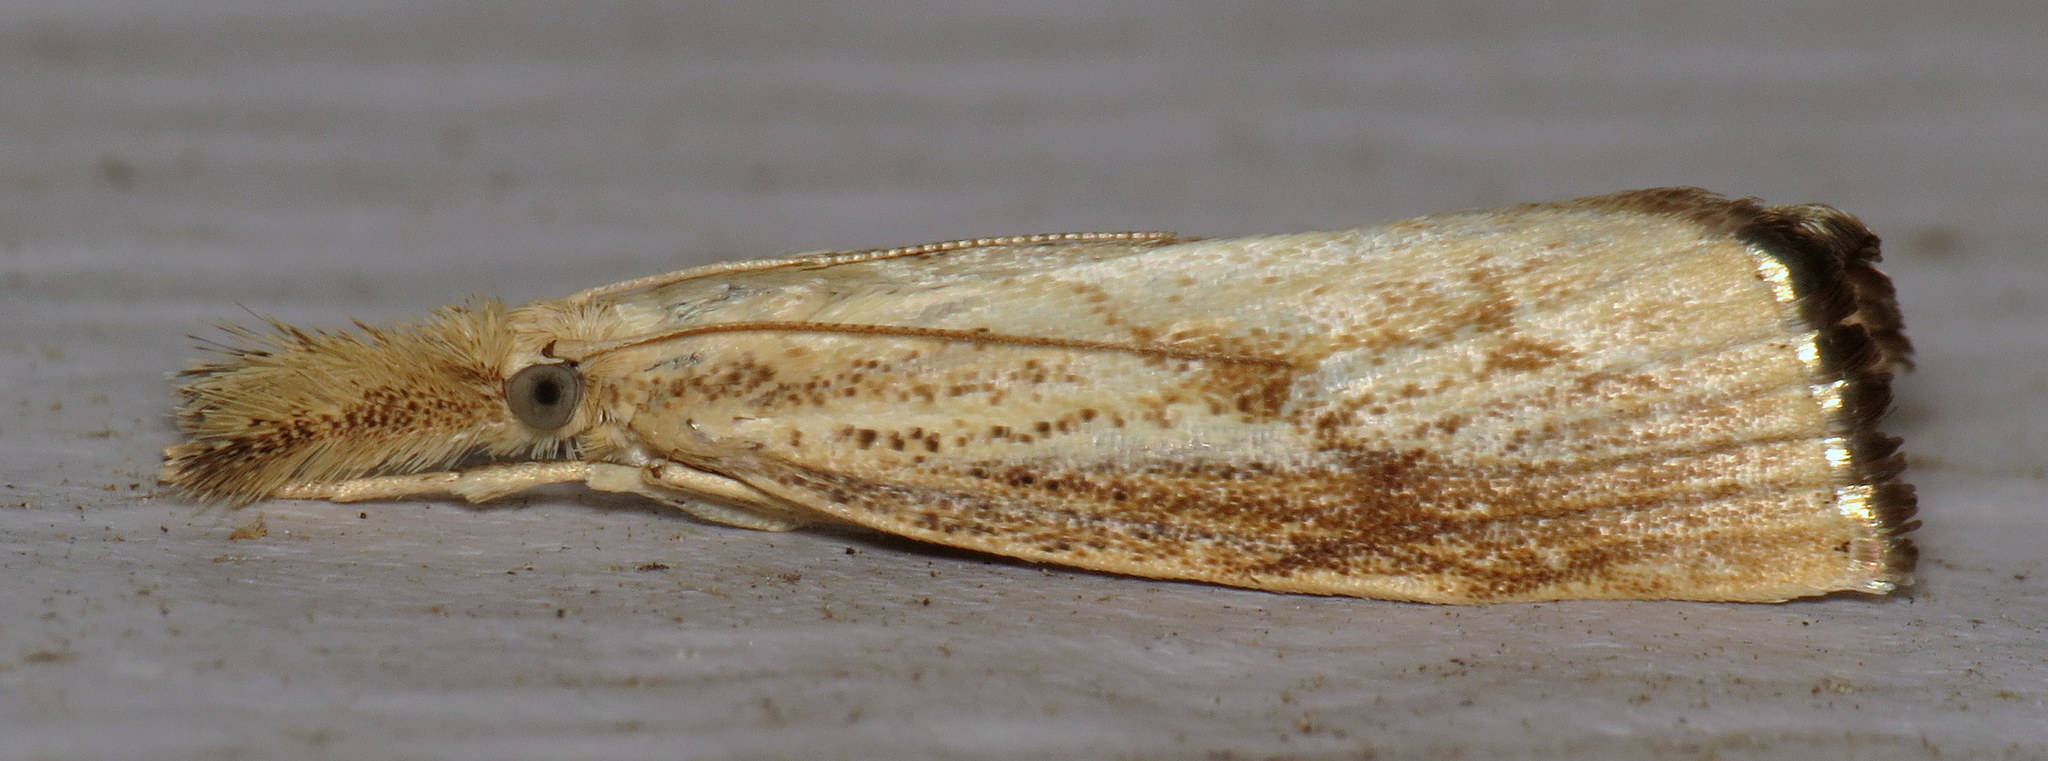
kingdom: Animalia
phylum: Arthropoda
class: Insecta
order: Lepidoptera
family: Crambidae
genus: Agriphila
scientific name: Agriphila ruricolellus
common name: Lesser vagabond sod webworm
